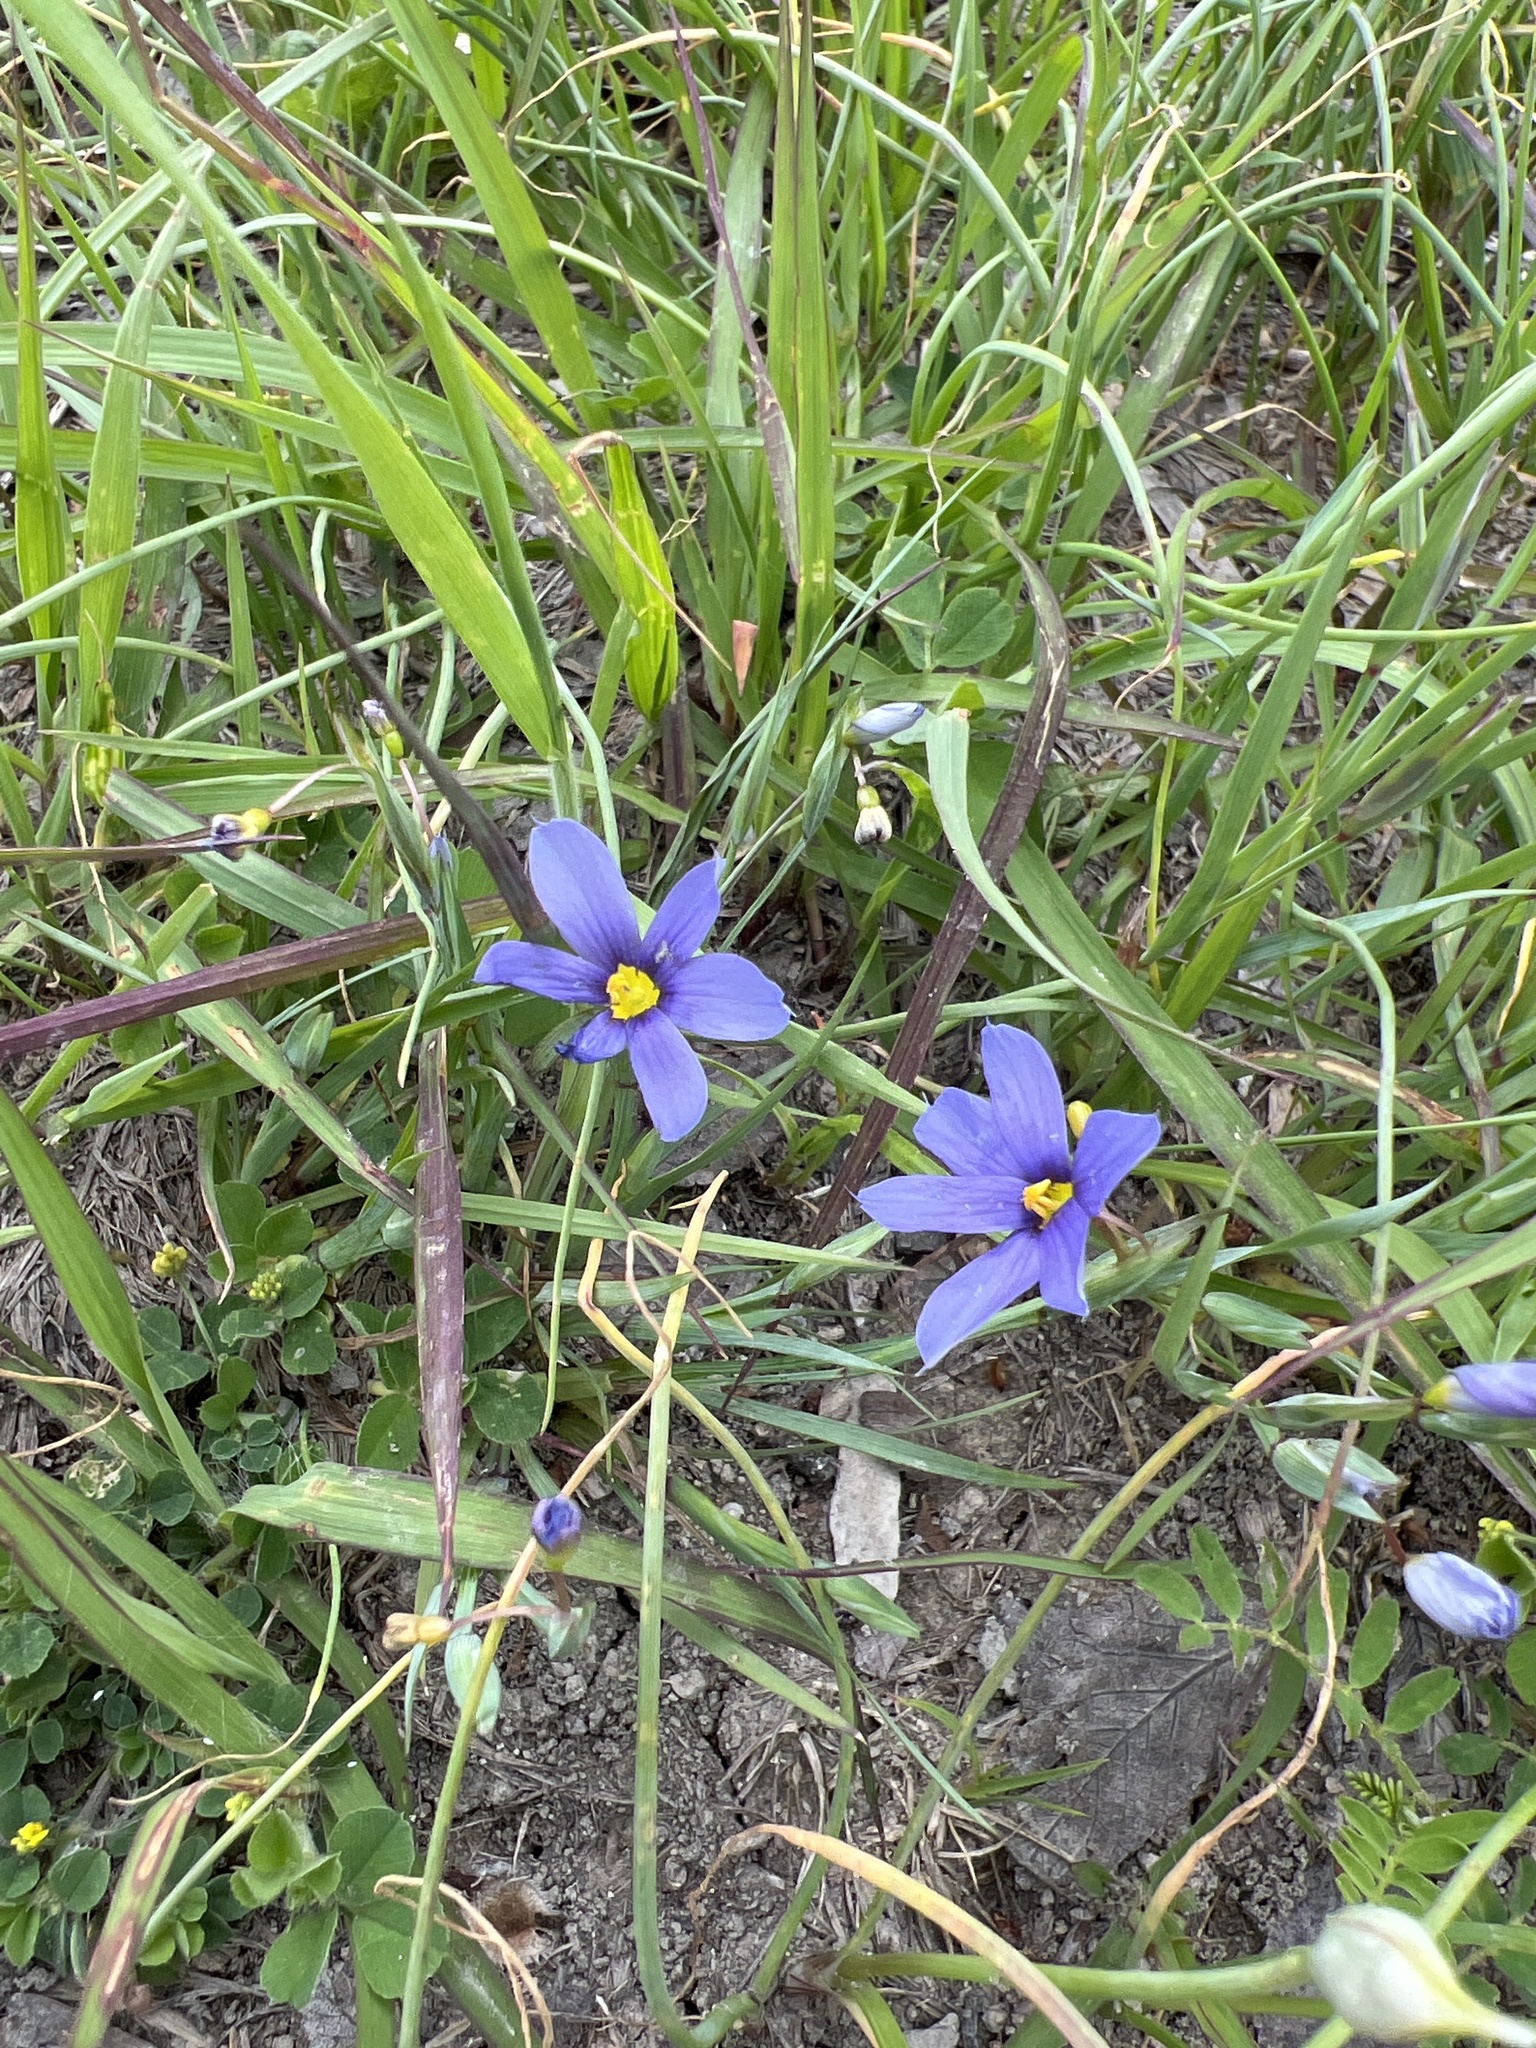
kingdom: Plantae
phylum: Tracheophyta
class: Liliopsida
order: Asparagales
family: Iridaceae
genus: Sisyrinchium
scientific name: Sisyrinchium pruinosum
